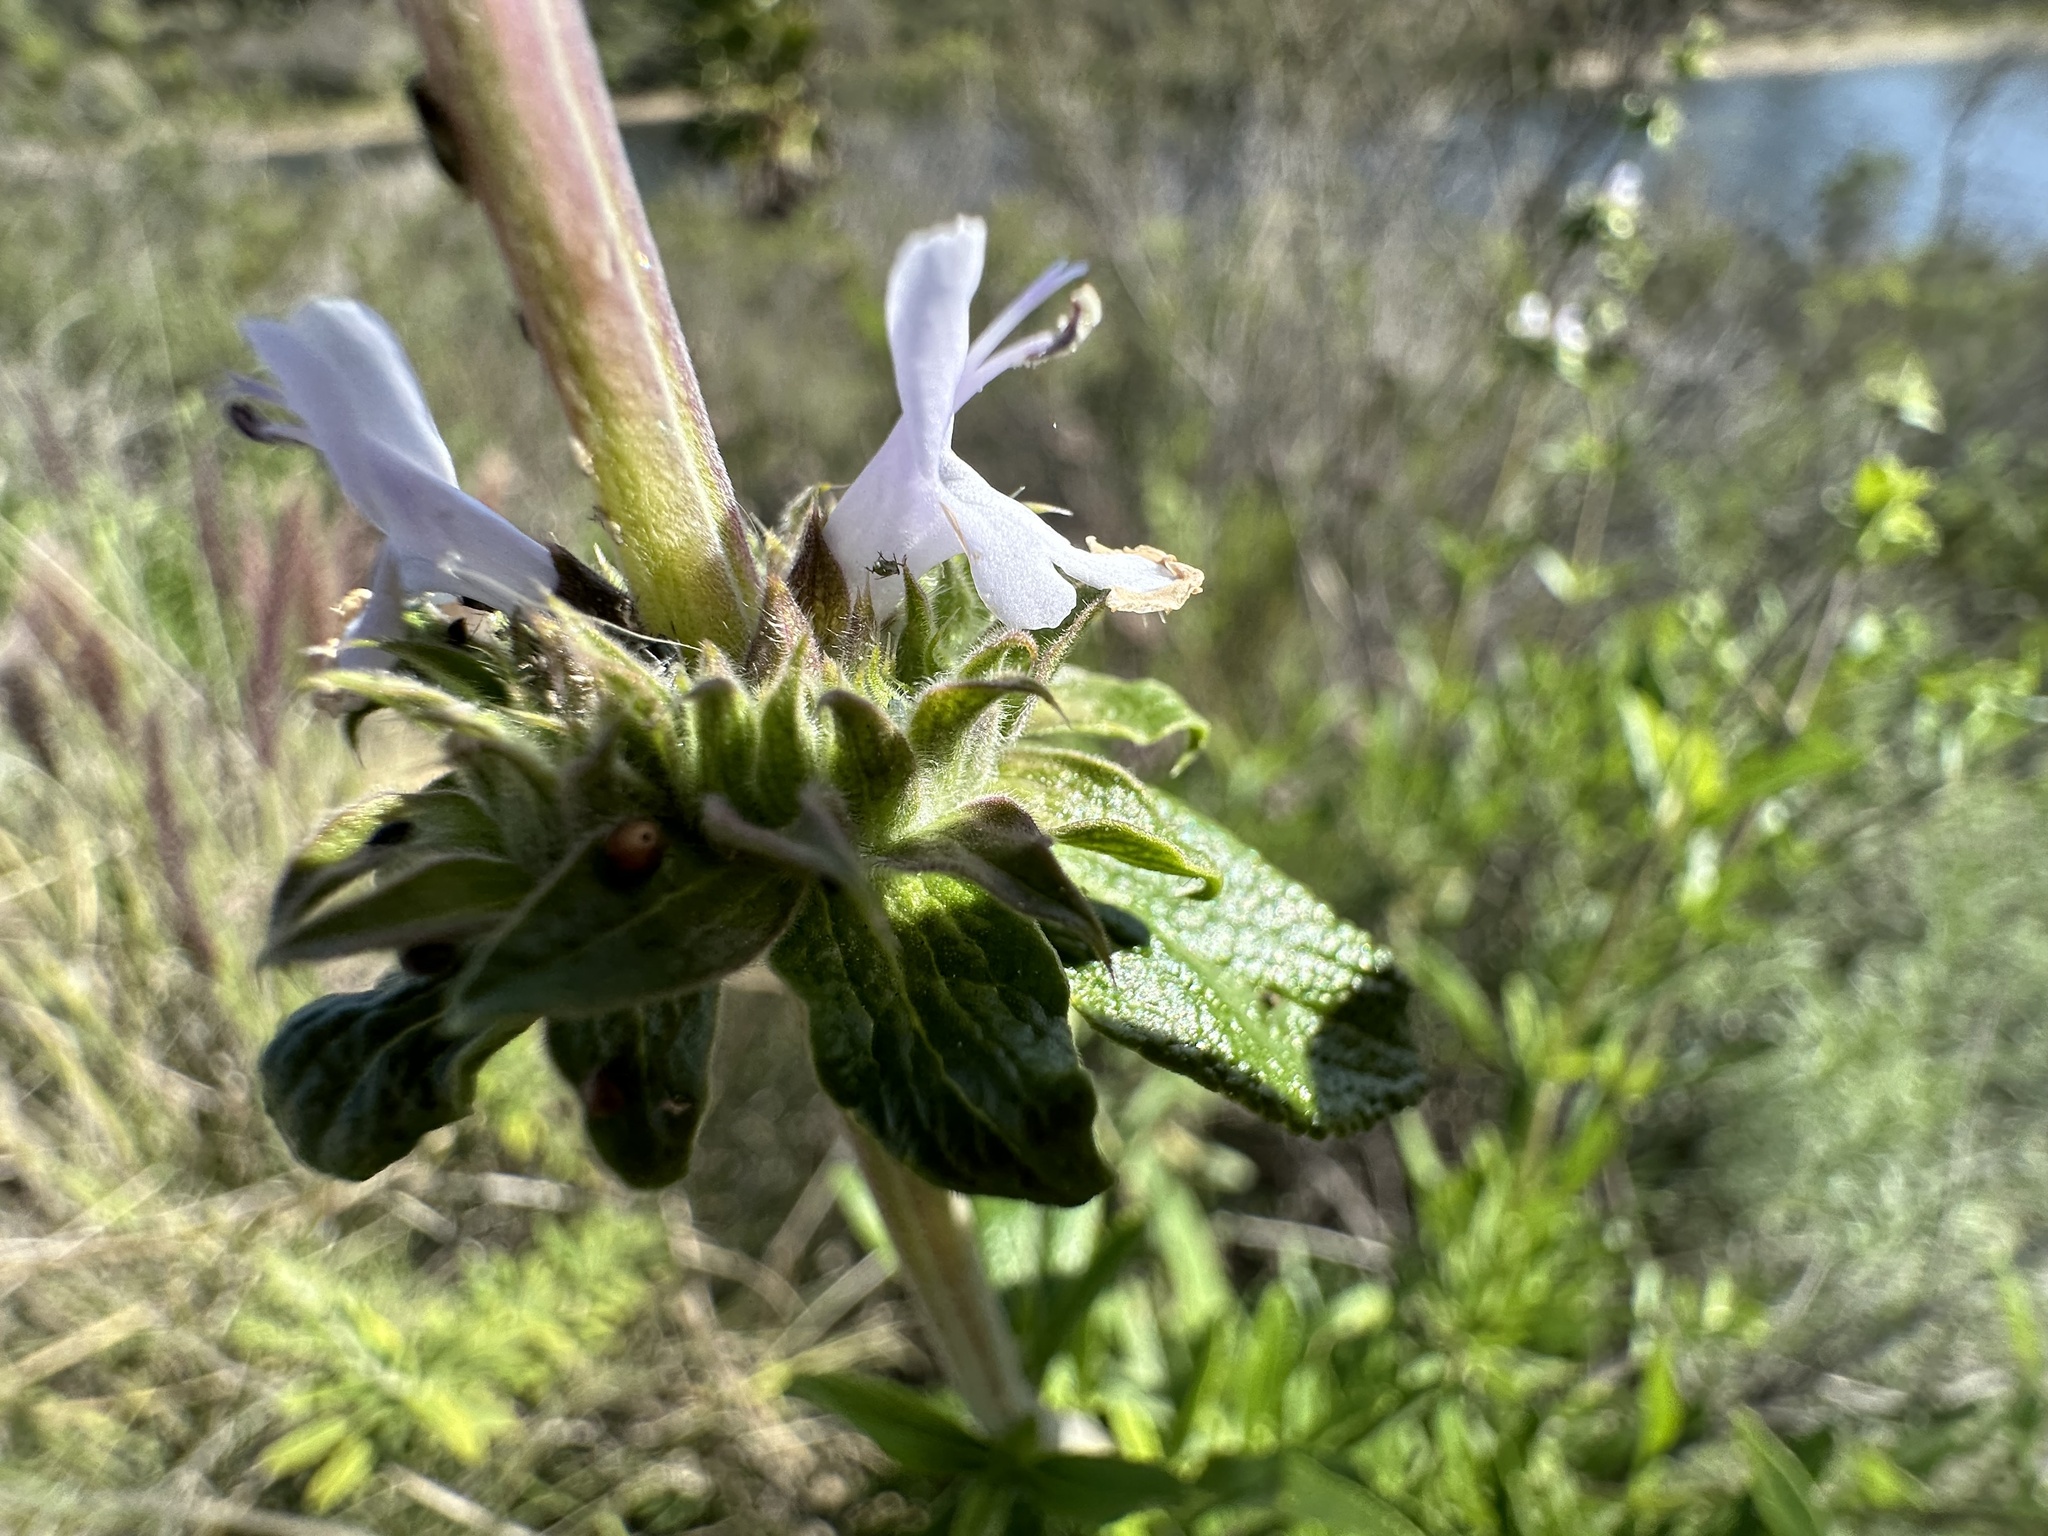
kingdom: Plantae
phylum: Tracheophyta
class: Magnoliopsida
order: Lamiales
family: Lamiaceae
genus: Salvia
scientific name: Salvia mellifera
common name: Black sage
